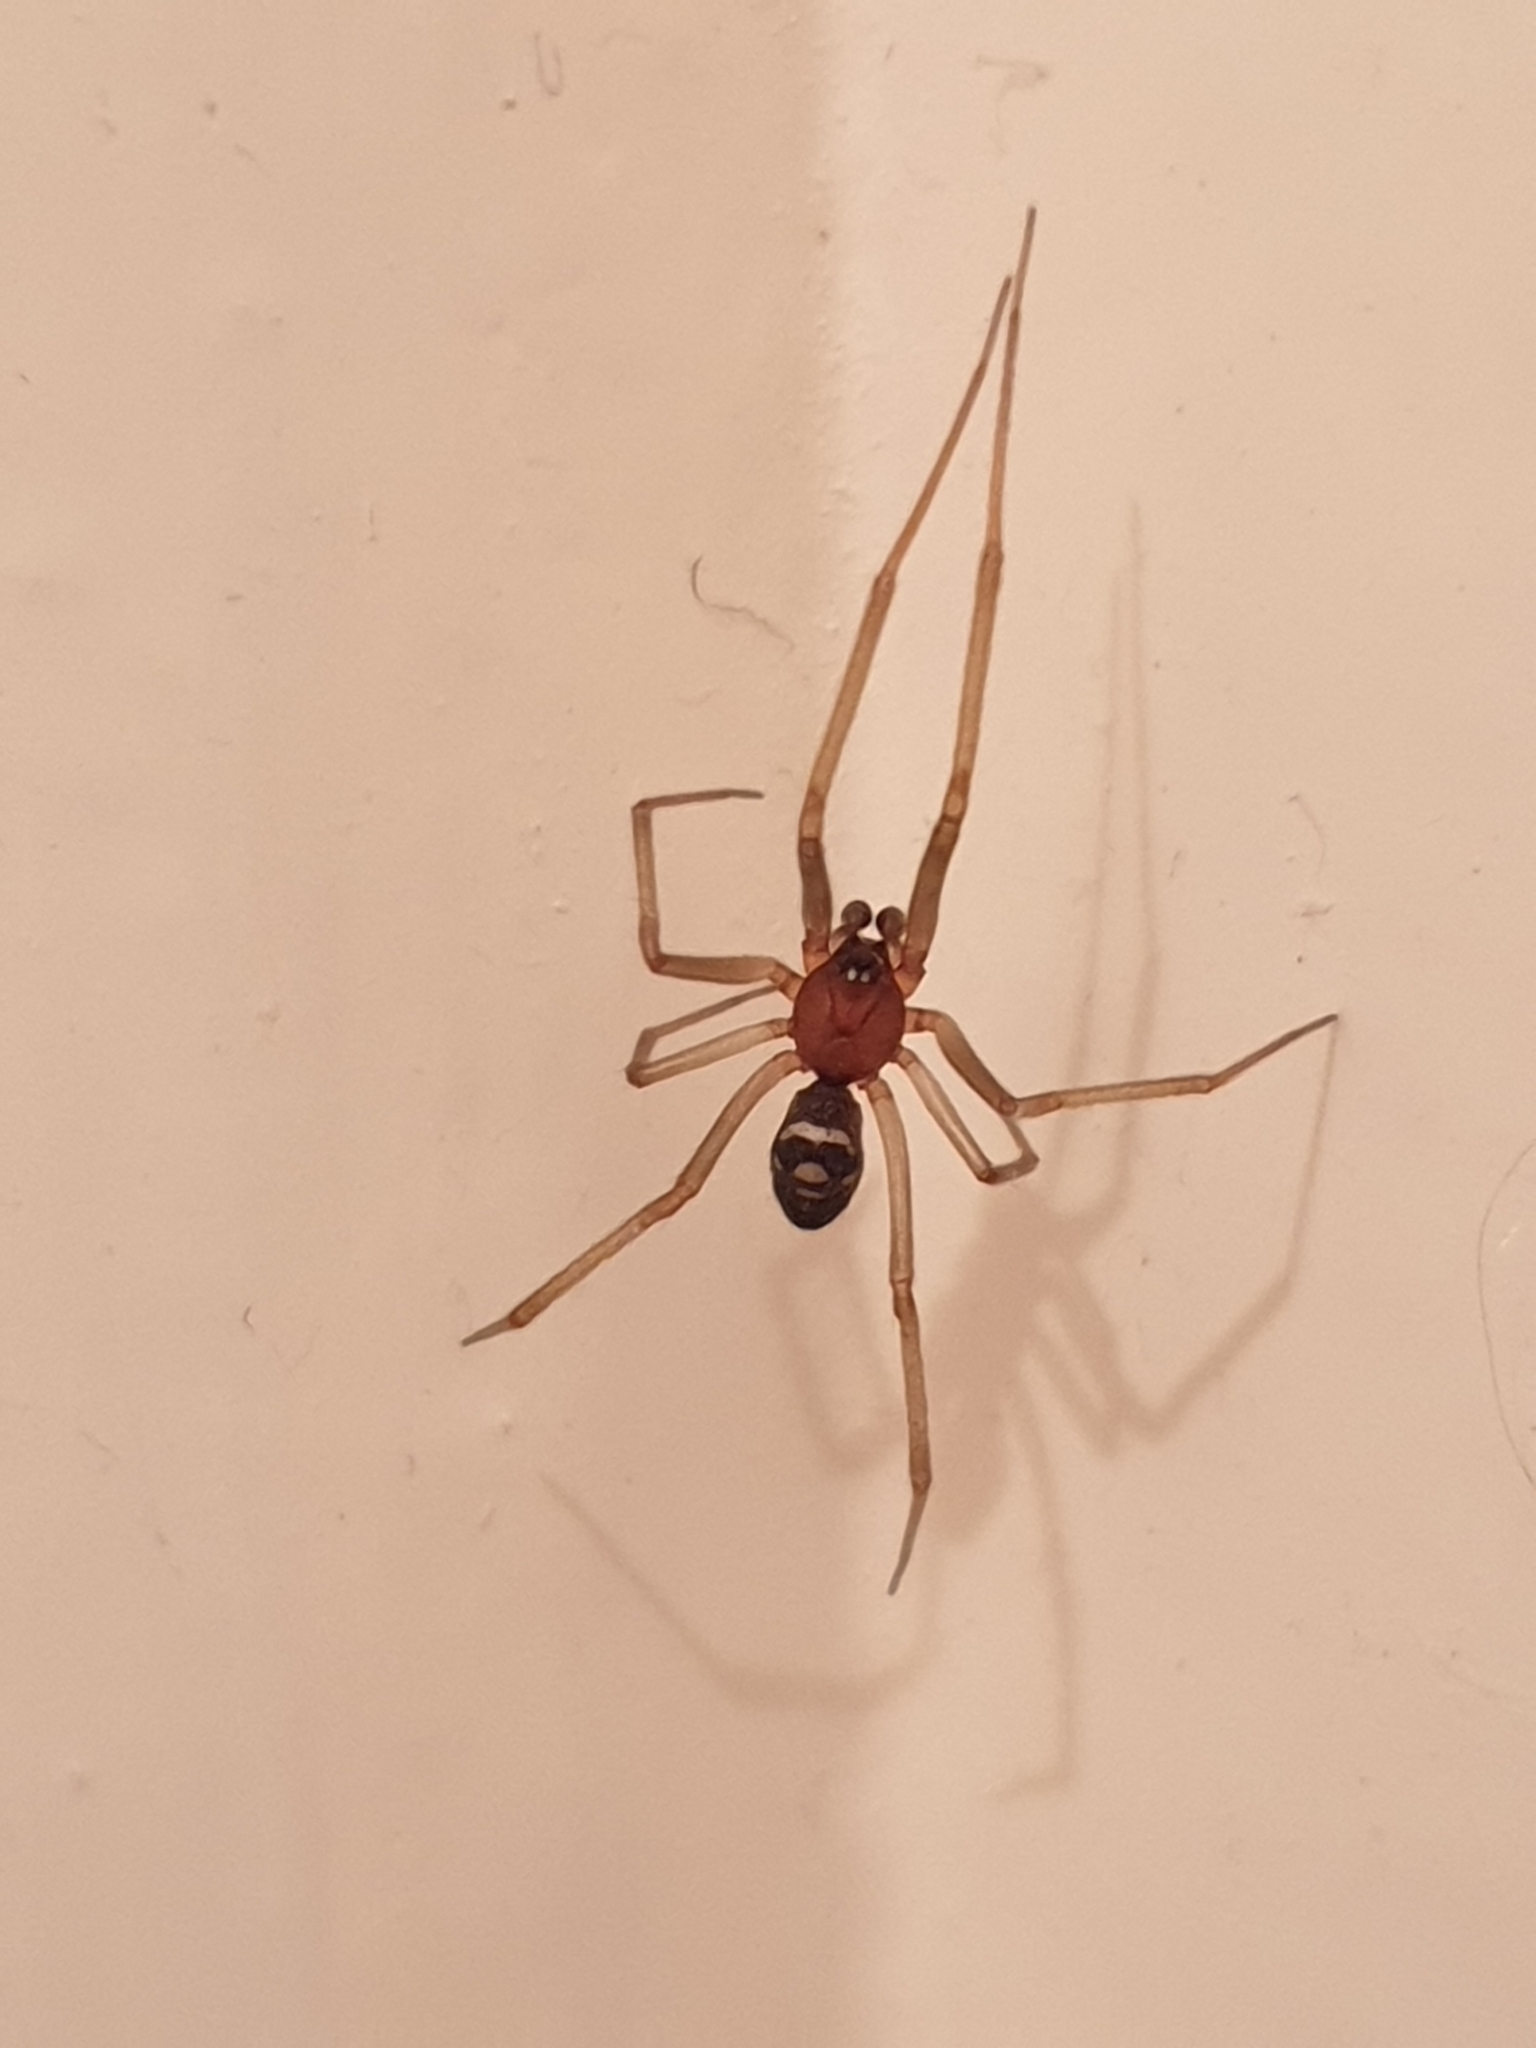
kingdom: Animalia
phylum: Arthropoda
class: Arachnida
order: Araneae
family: Theridiidae
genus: Steatoda
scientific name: Steatoda grossa
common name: False black widow
